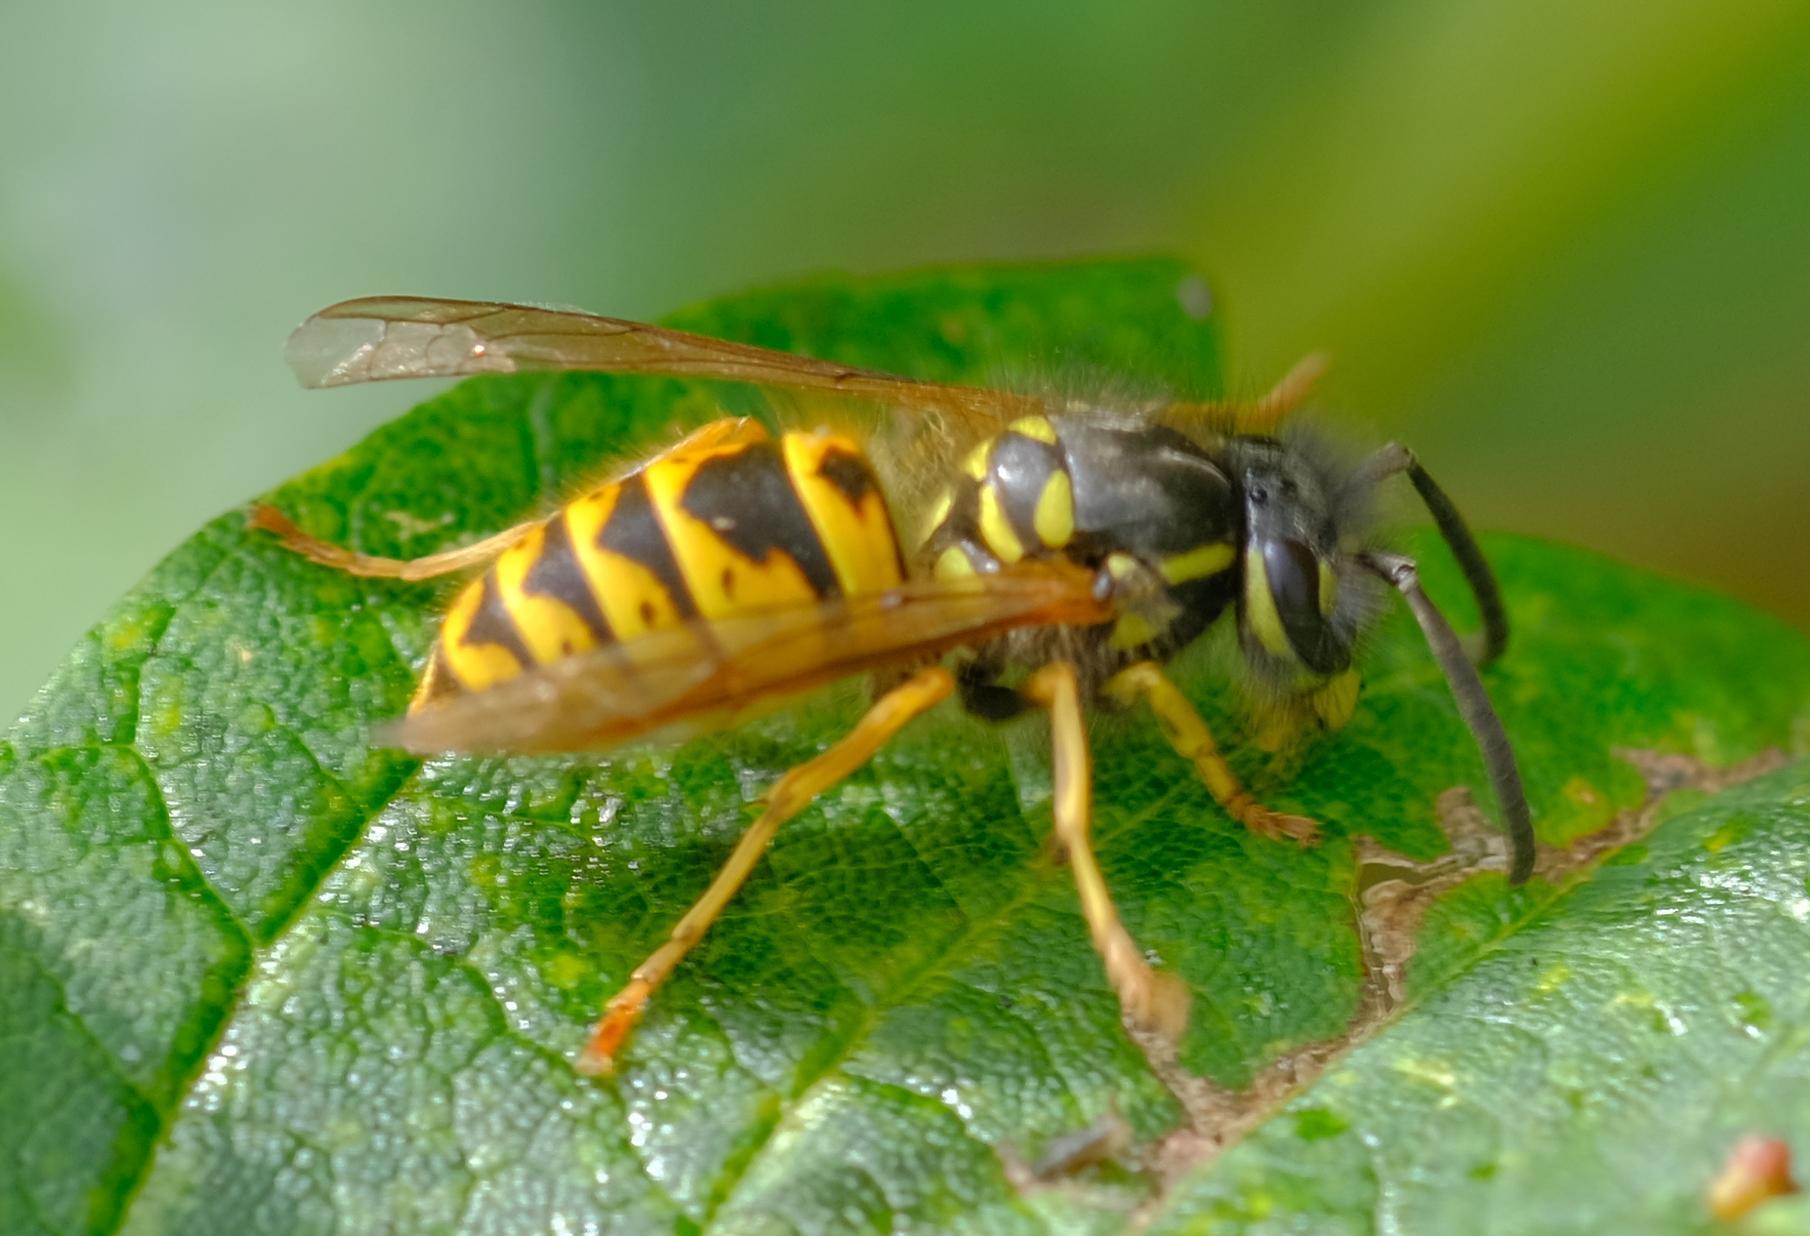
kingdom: Animalia
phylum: Arthropoda
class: Insecta
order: Hymenoptera
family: Vespidae
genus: Vespula
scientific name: Vespula vulgaris
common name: Common wasp
